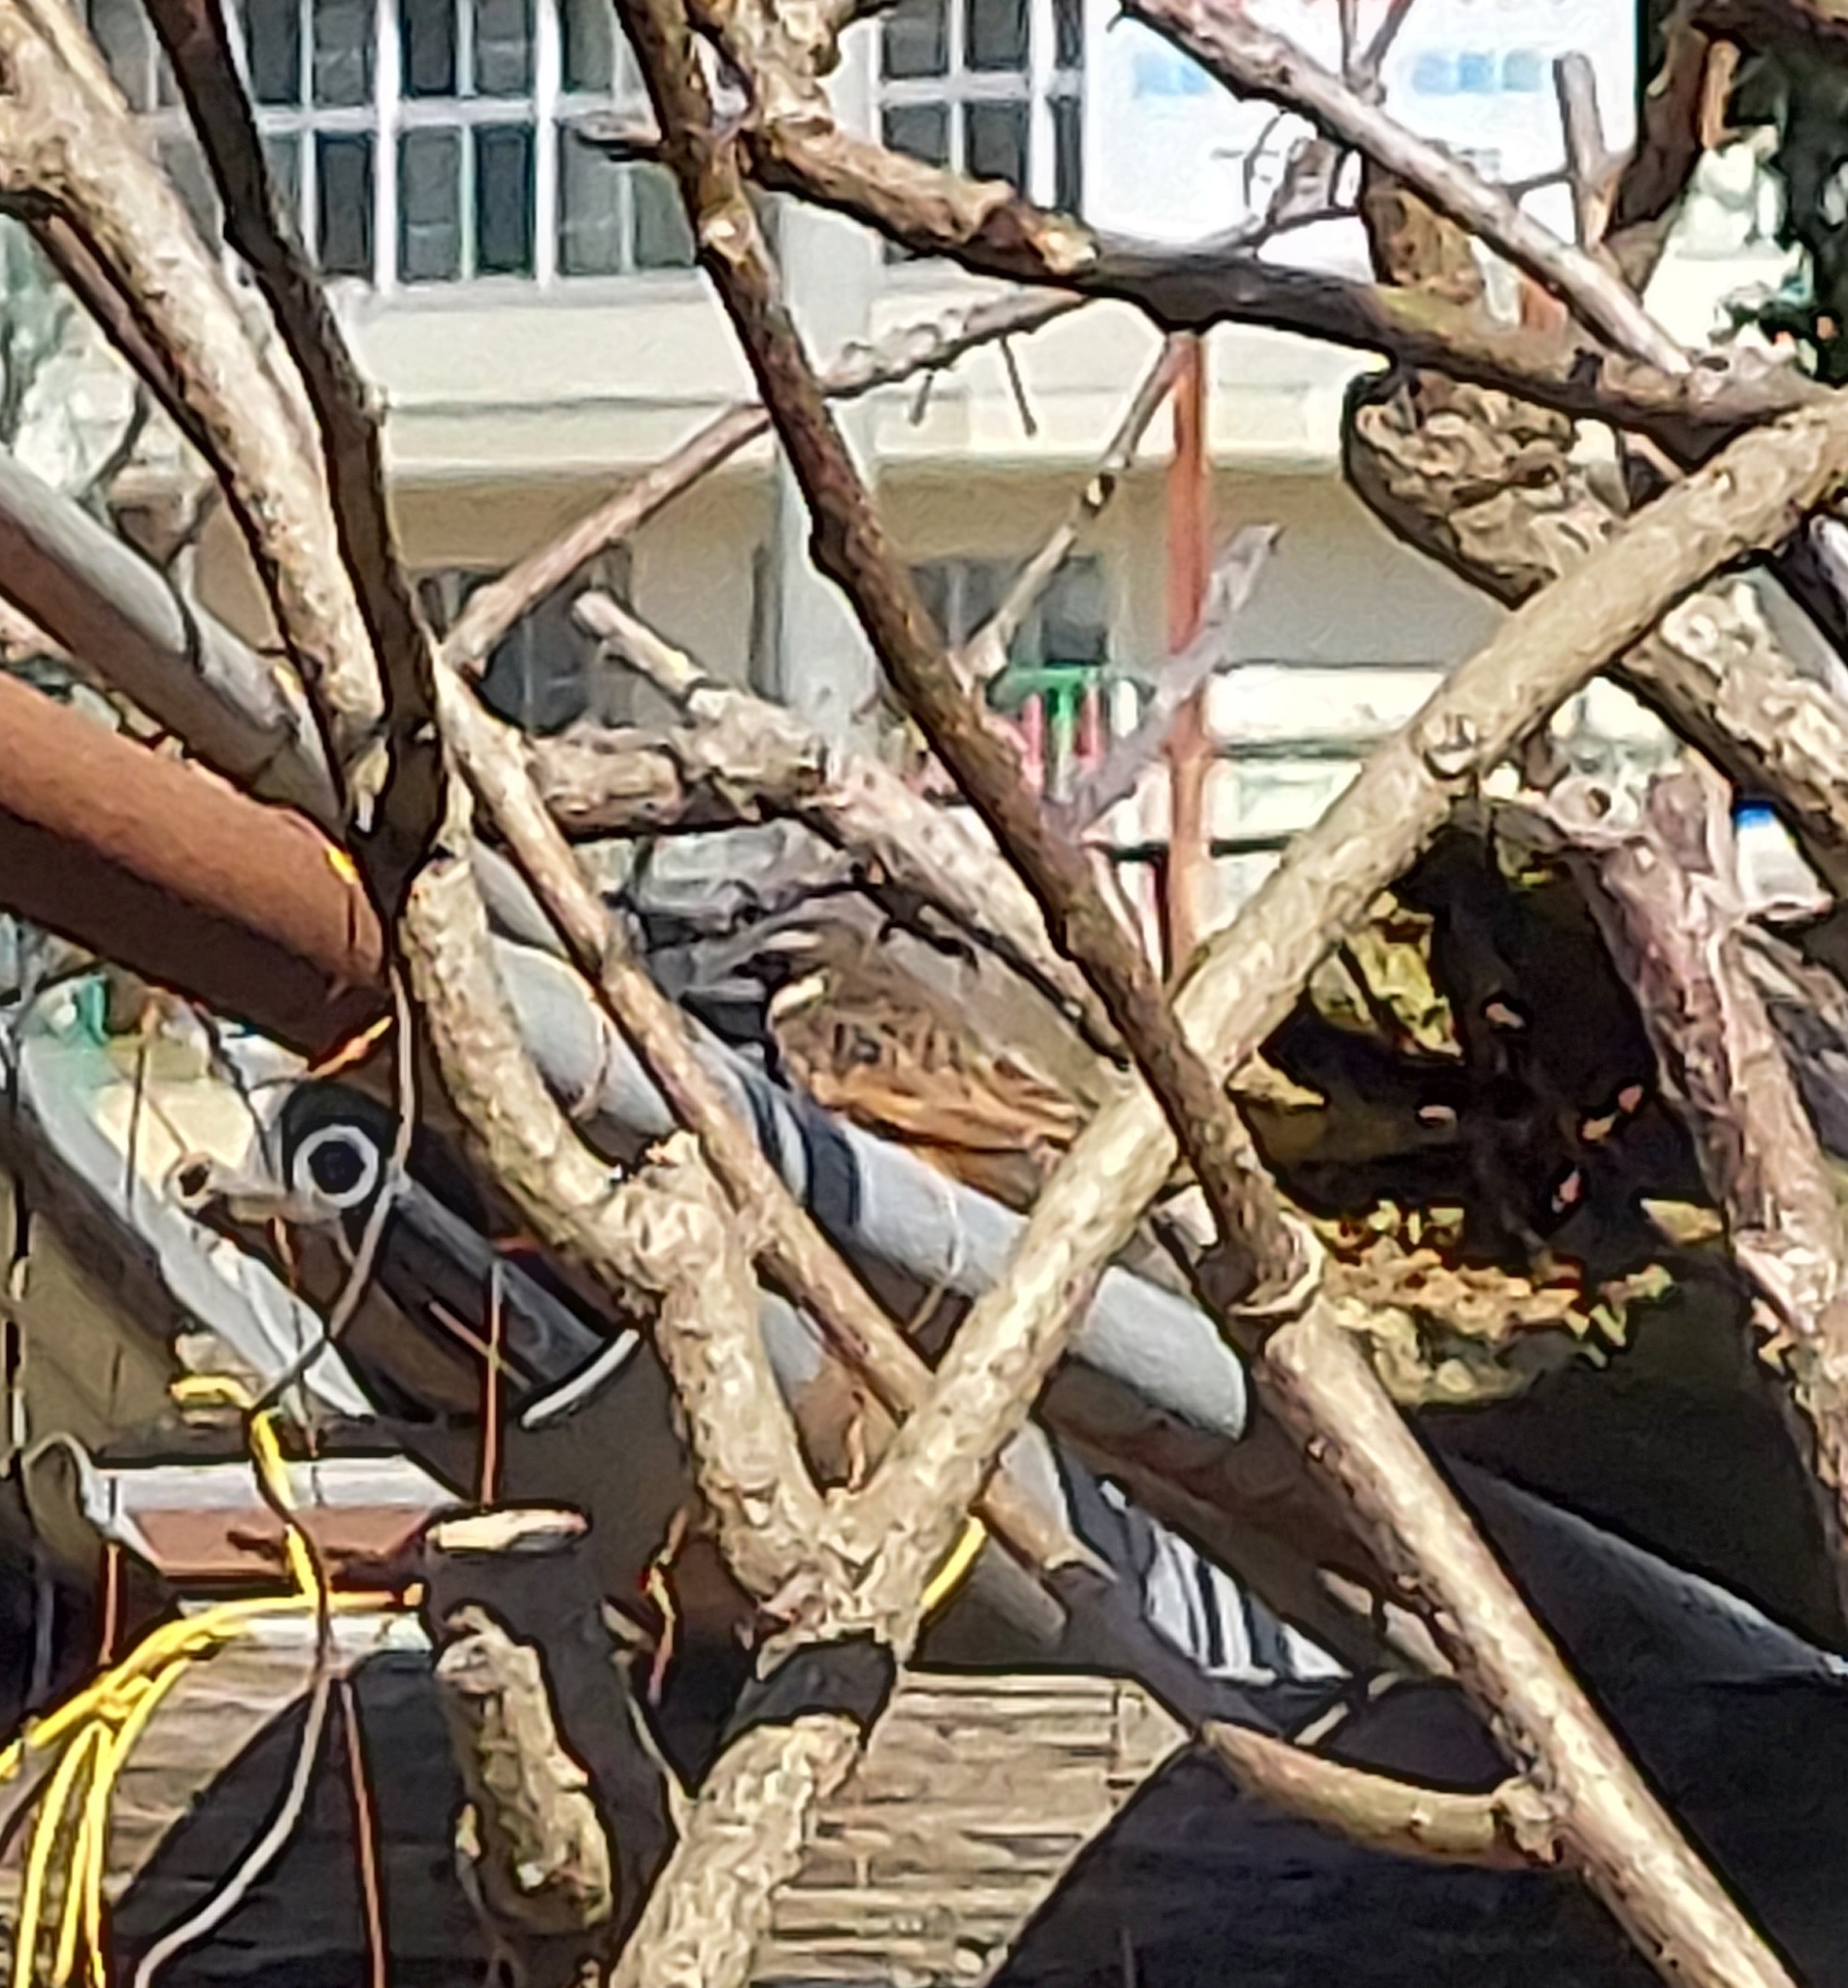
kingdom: Animalia
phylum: Chordata
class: Aves
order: Passeriformes
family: Turdidae
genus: Turdus
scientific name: Turdus eunomus
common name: Dusky thrush
